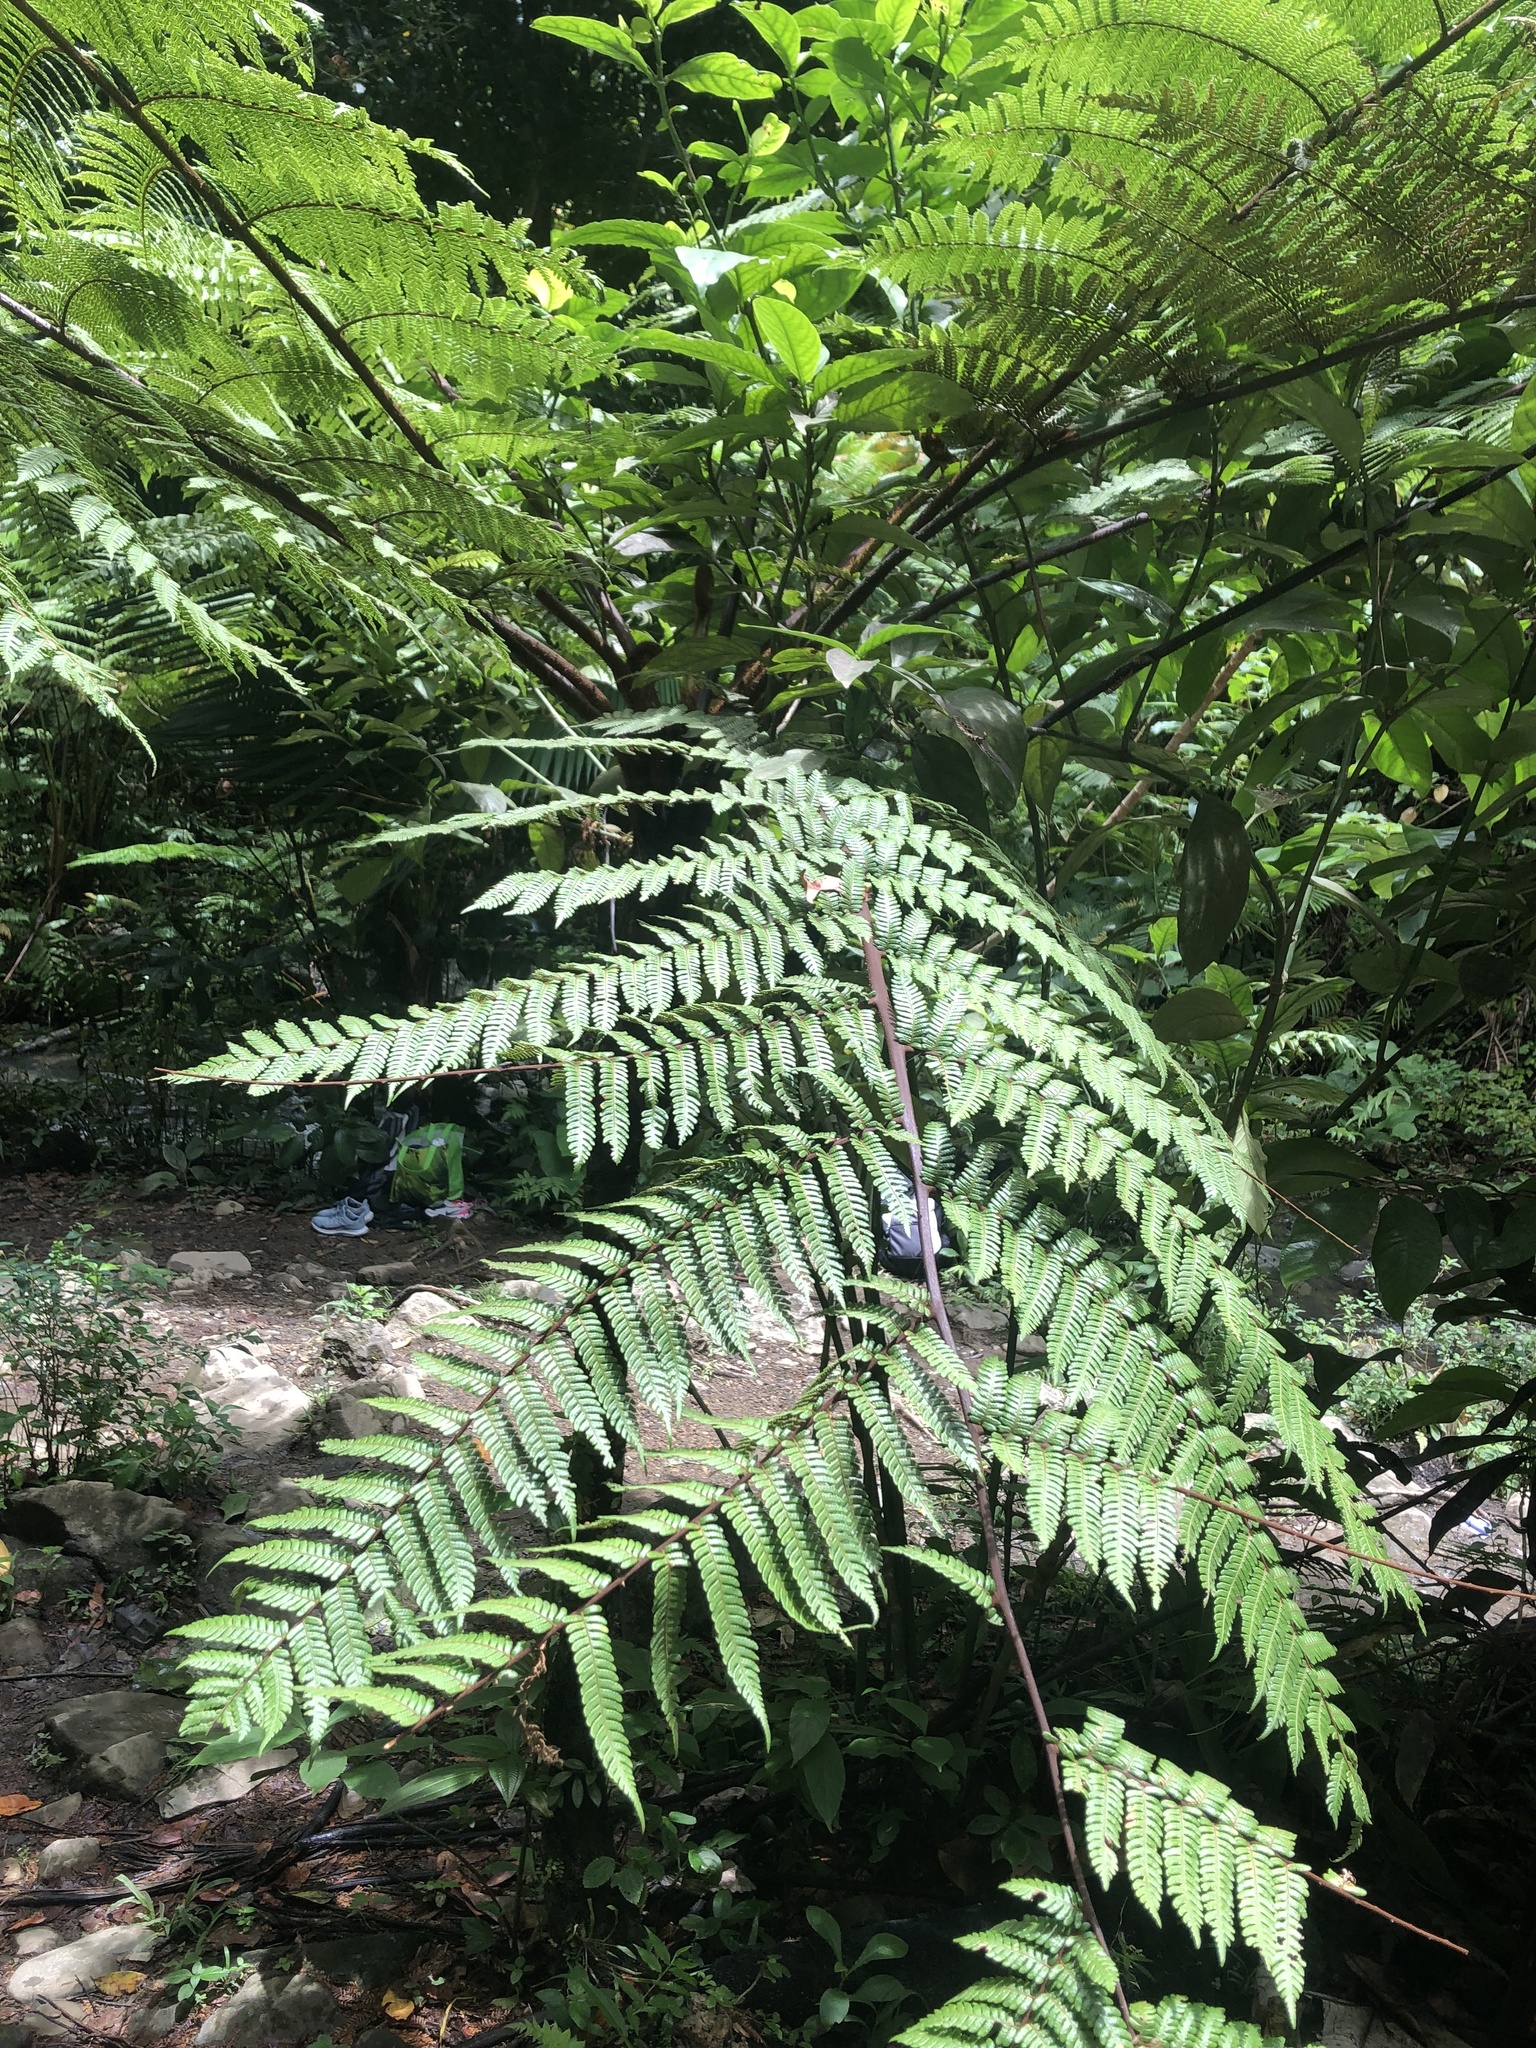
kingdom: Plantae
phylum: Tracheophyta
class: Polypodiopsida
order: Cyatheales
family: Cyatheaceae
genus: Alsophila
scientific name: Alsophila portoricensis
